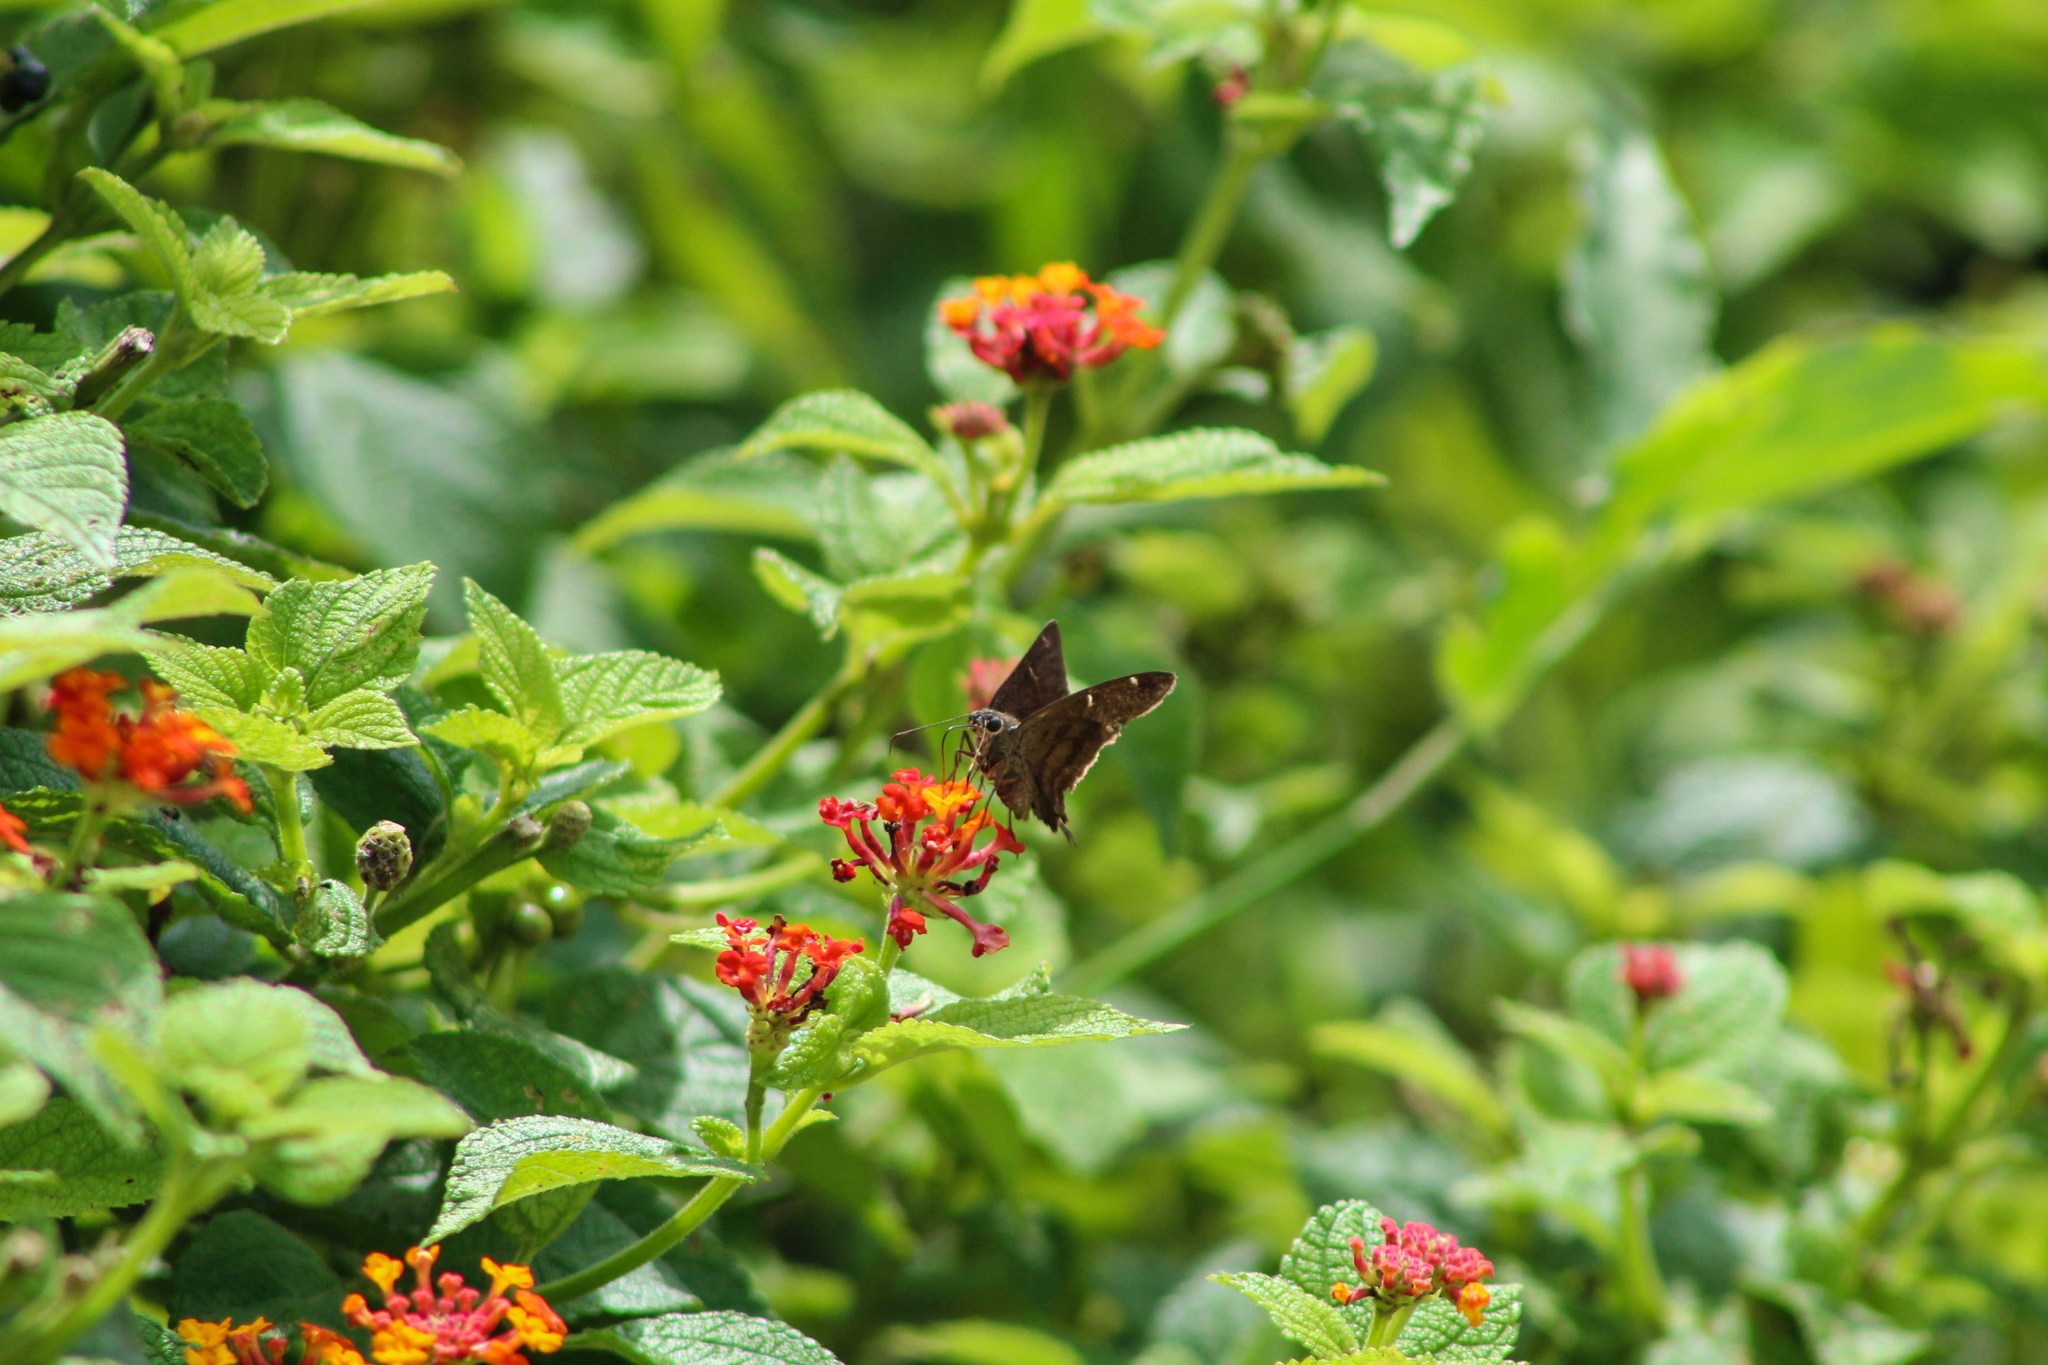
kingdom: Animalia
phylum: Arthropoda
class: Insecta
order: Lepidoptera
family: Hesperiidae
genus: Urbanus
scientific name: Urbanus procne
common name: Brown longtail
